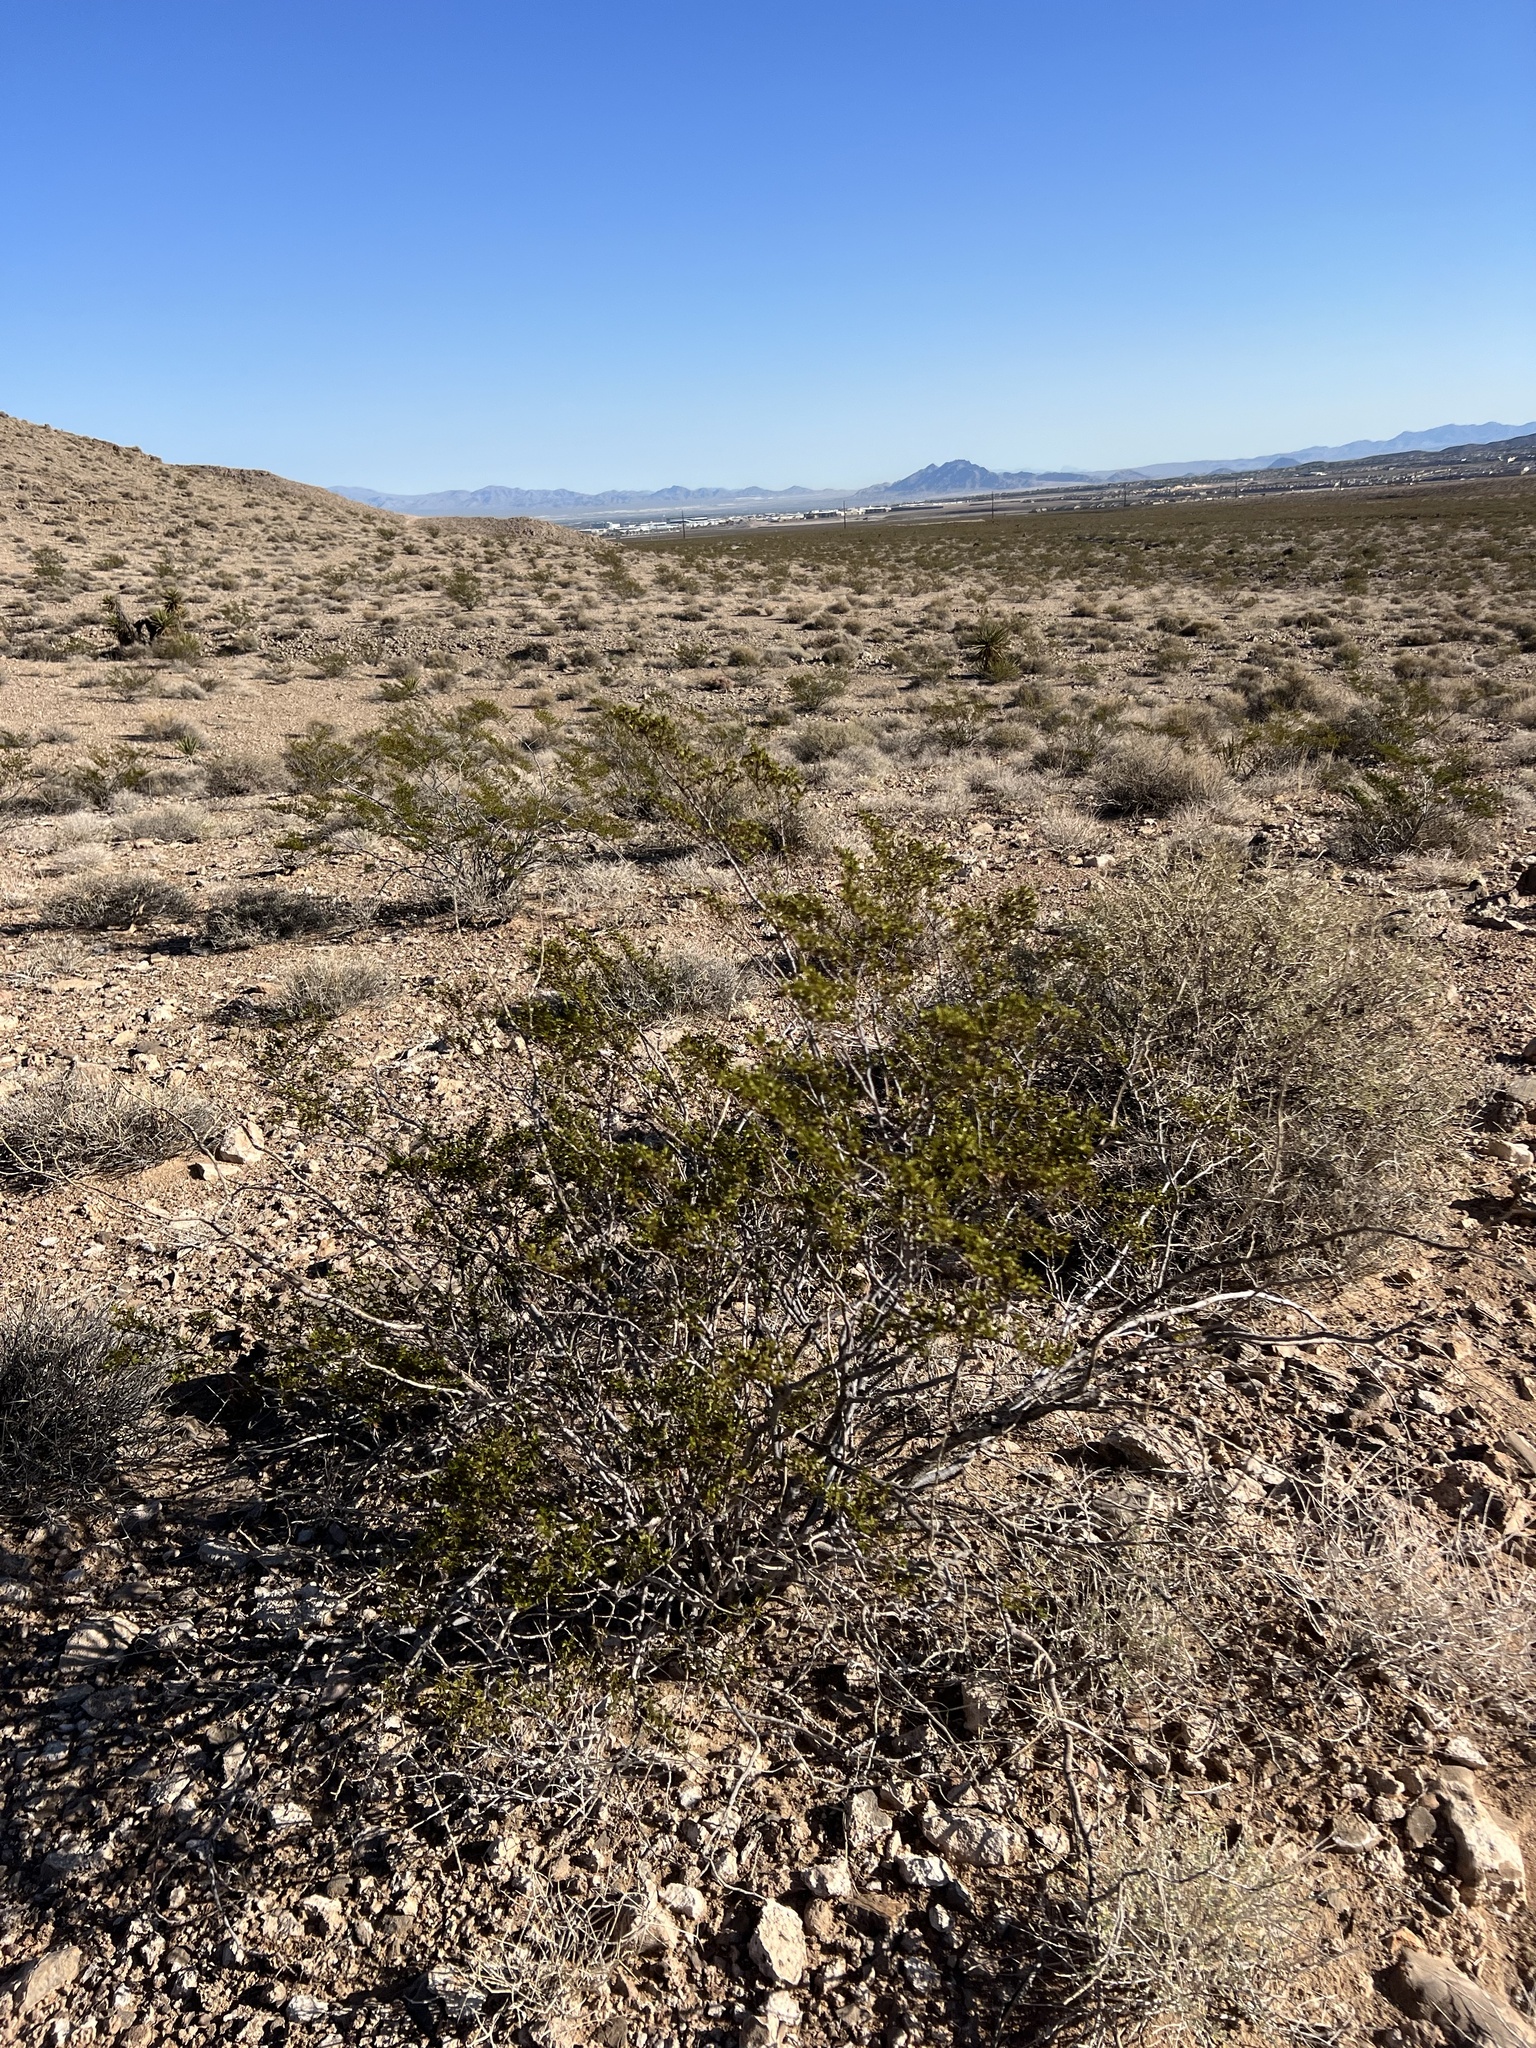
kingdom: Plantae
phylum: Tracheophyta
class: Magnoliopsida
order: Zygophyllales
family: Zygophyllaceae
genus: Larrea
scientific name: Larrea tridentata
